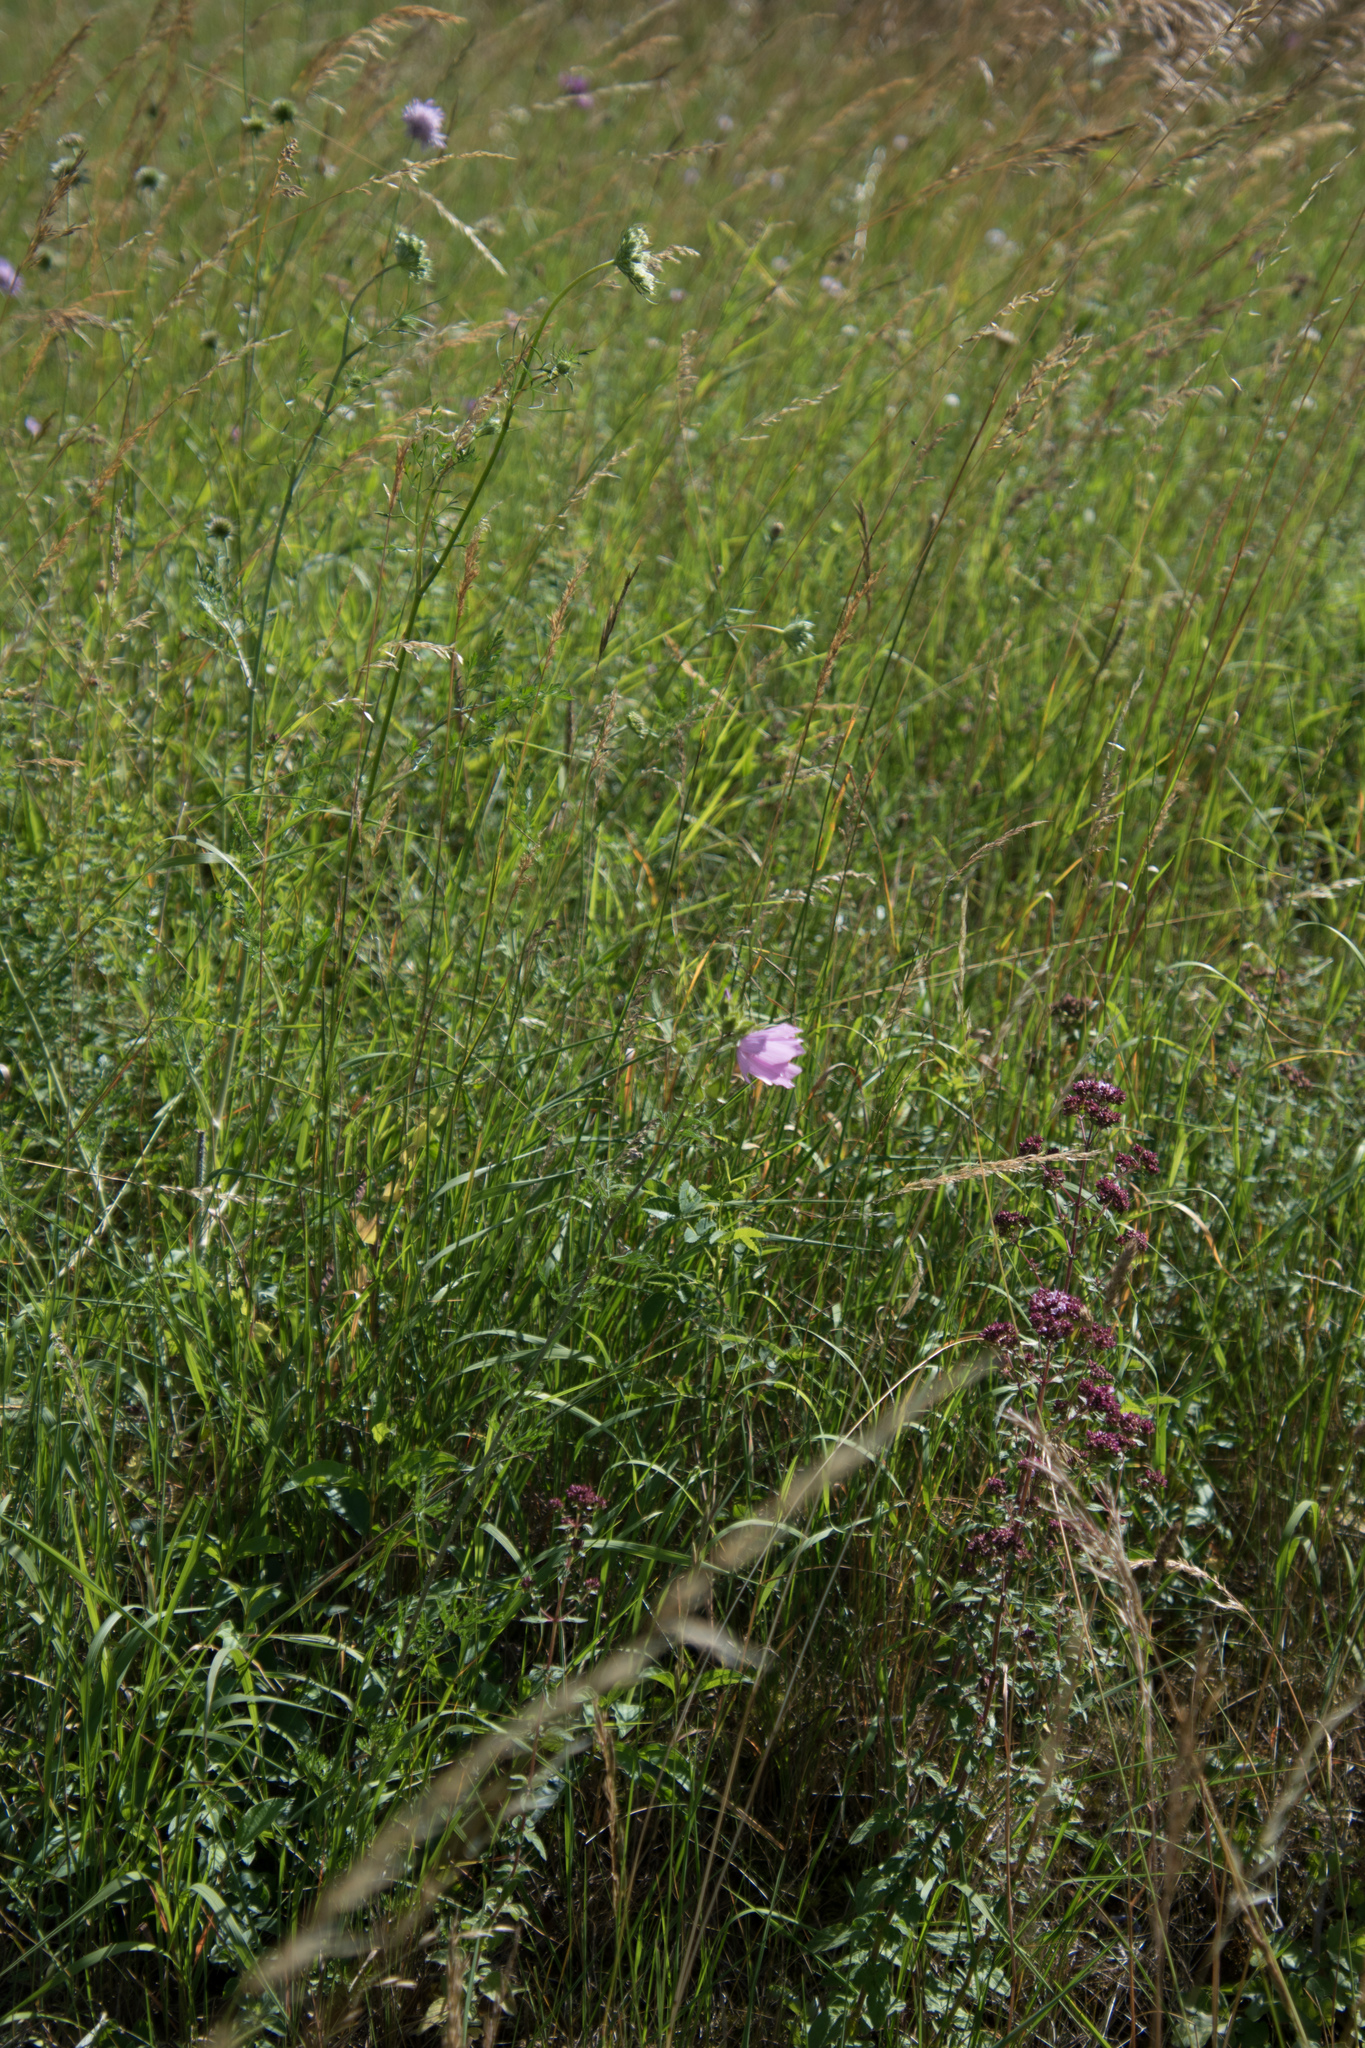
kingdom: Plantae
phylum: Tracheophyta
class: Magnoliopsida
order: Malvales
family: Malvaceae
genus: Malva
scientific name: Malva moschata
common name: Musk mallow
